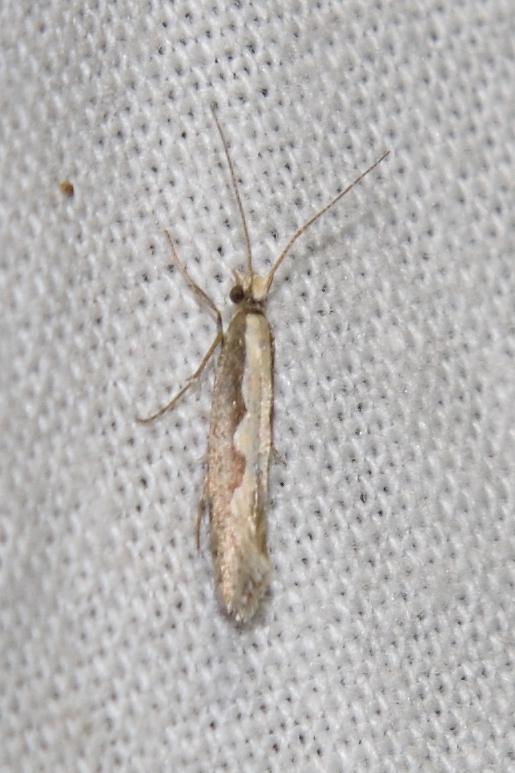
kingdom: Animalia
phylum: Arthropoda
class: Insecta
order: Lepidoptera
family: Plutellidae
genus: Plutella
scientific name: Plutella xylostella
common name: Diamond-back moth
